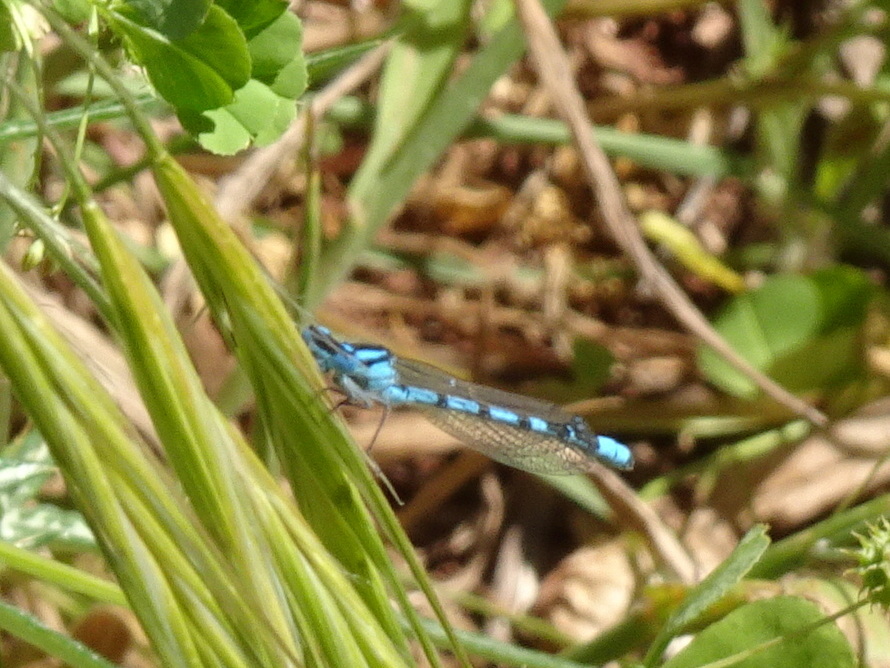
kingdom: Animalia
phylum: Arthropoda
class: Insecta
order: Odonata
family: Coenagrionidae
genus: Enallagma
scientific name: Enallagma cyathigerum
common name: Common blue damselfly
